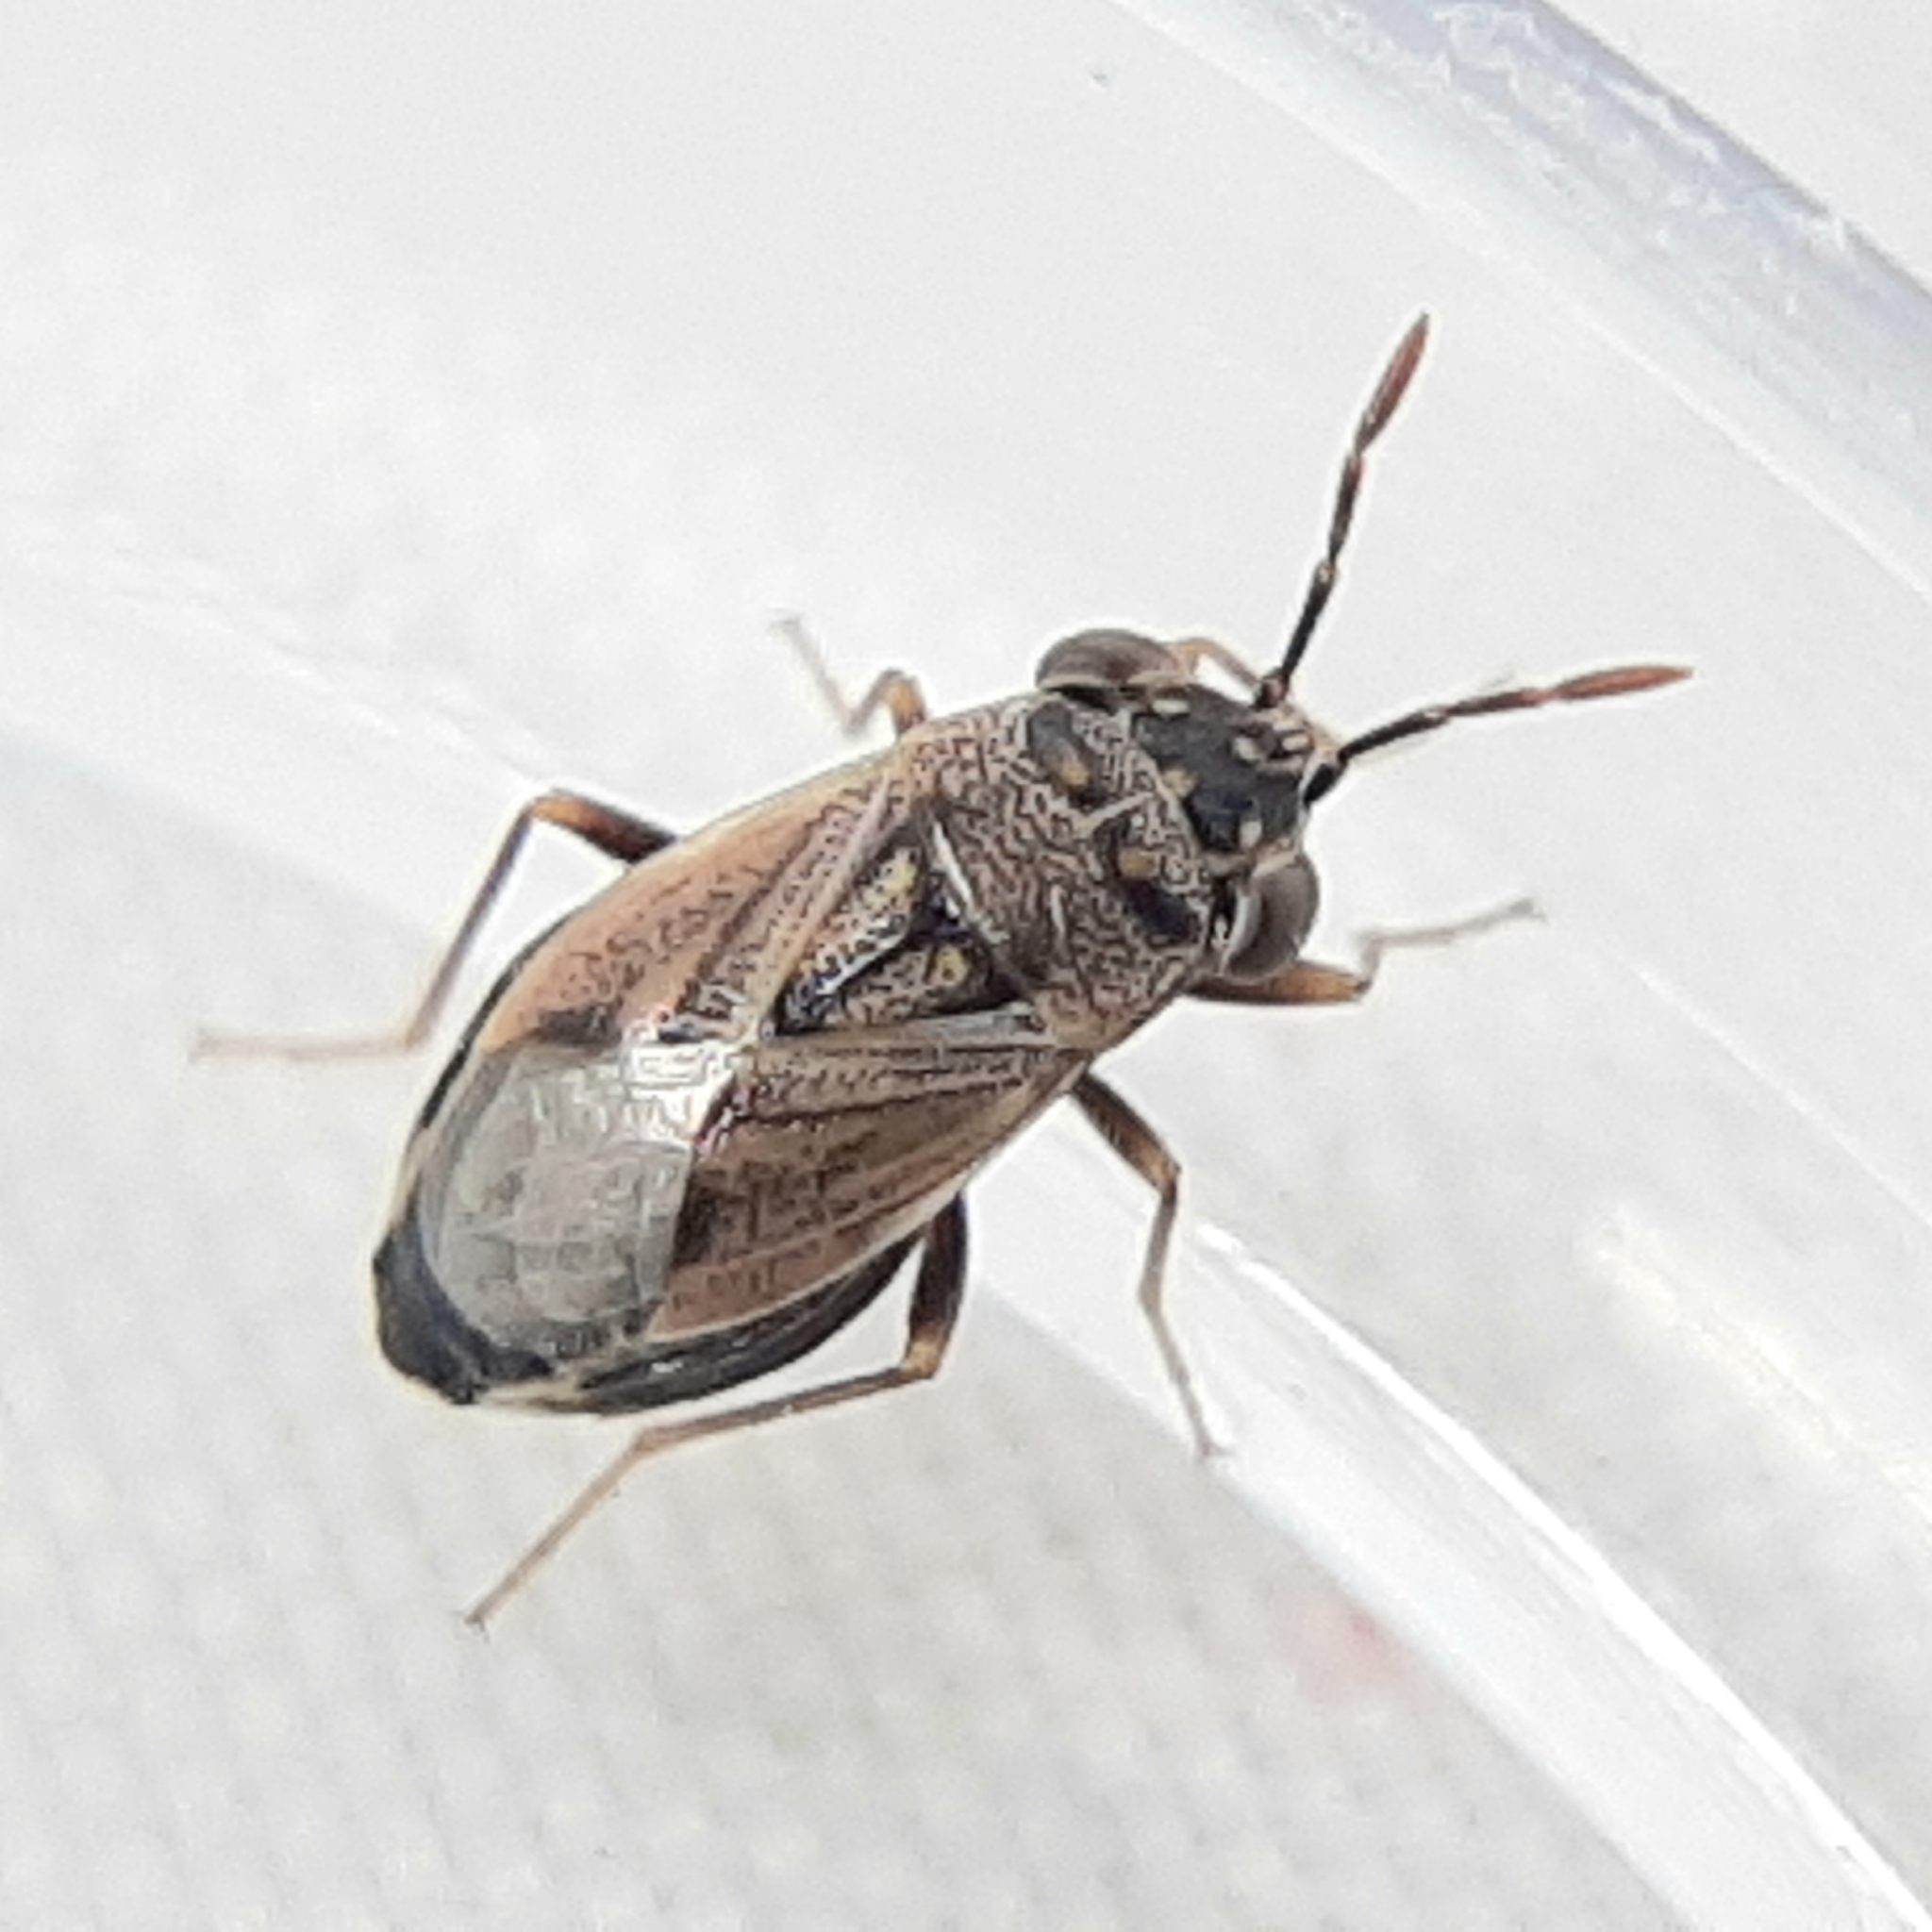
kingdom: Animalia
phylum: Arthropoda
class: Insecta
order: Hemiptera
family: Geocoridae
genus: Geocoris
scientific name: Geocoris bullatus
